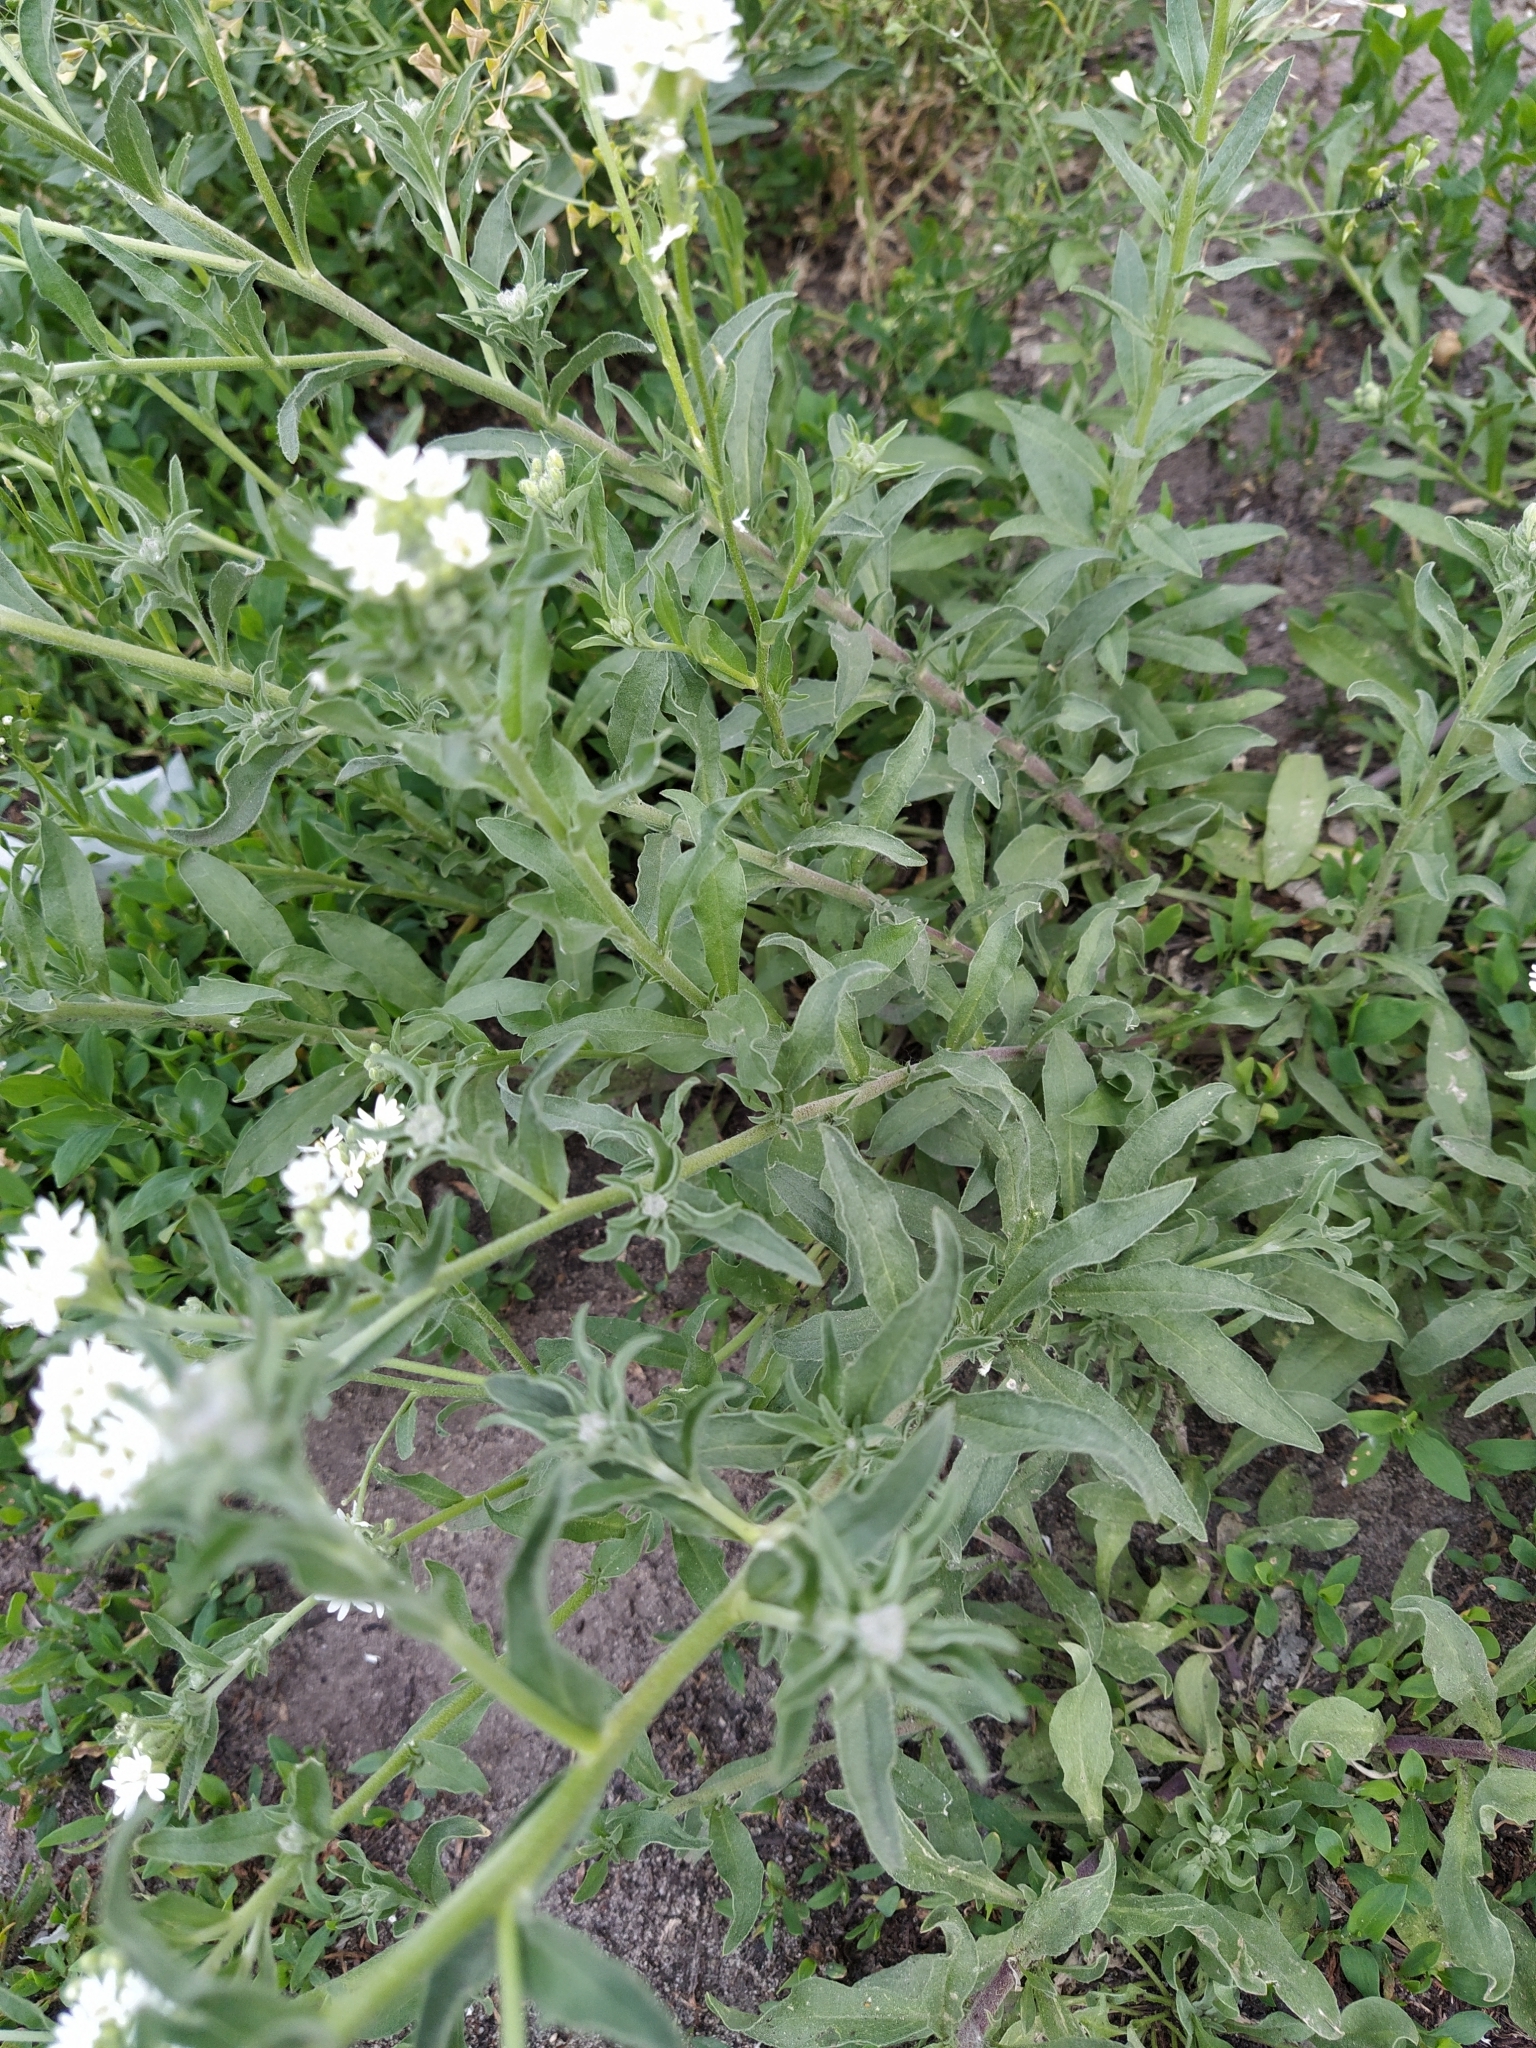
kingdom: Plantae
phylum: Tracheophyta
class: Magnoliopsida
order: Brassicales
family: Brassicaceae
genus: Berteroa
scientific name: Berteroa incana
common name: Hoary alison
